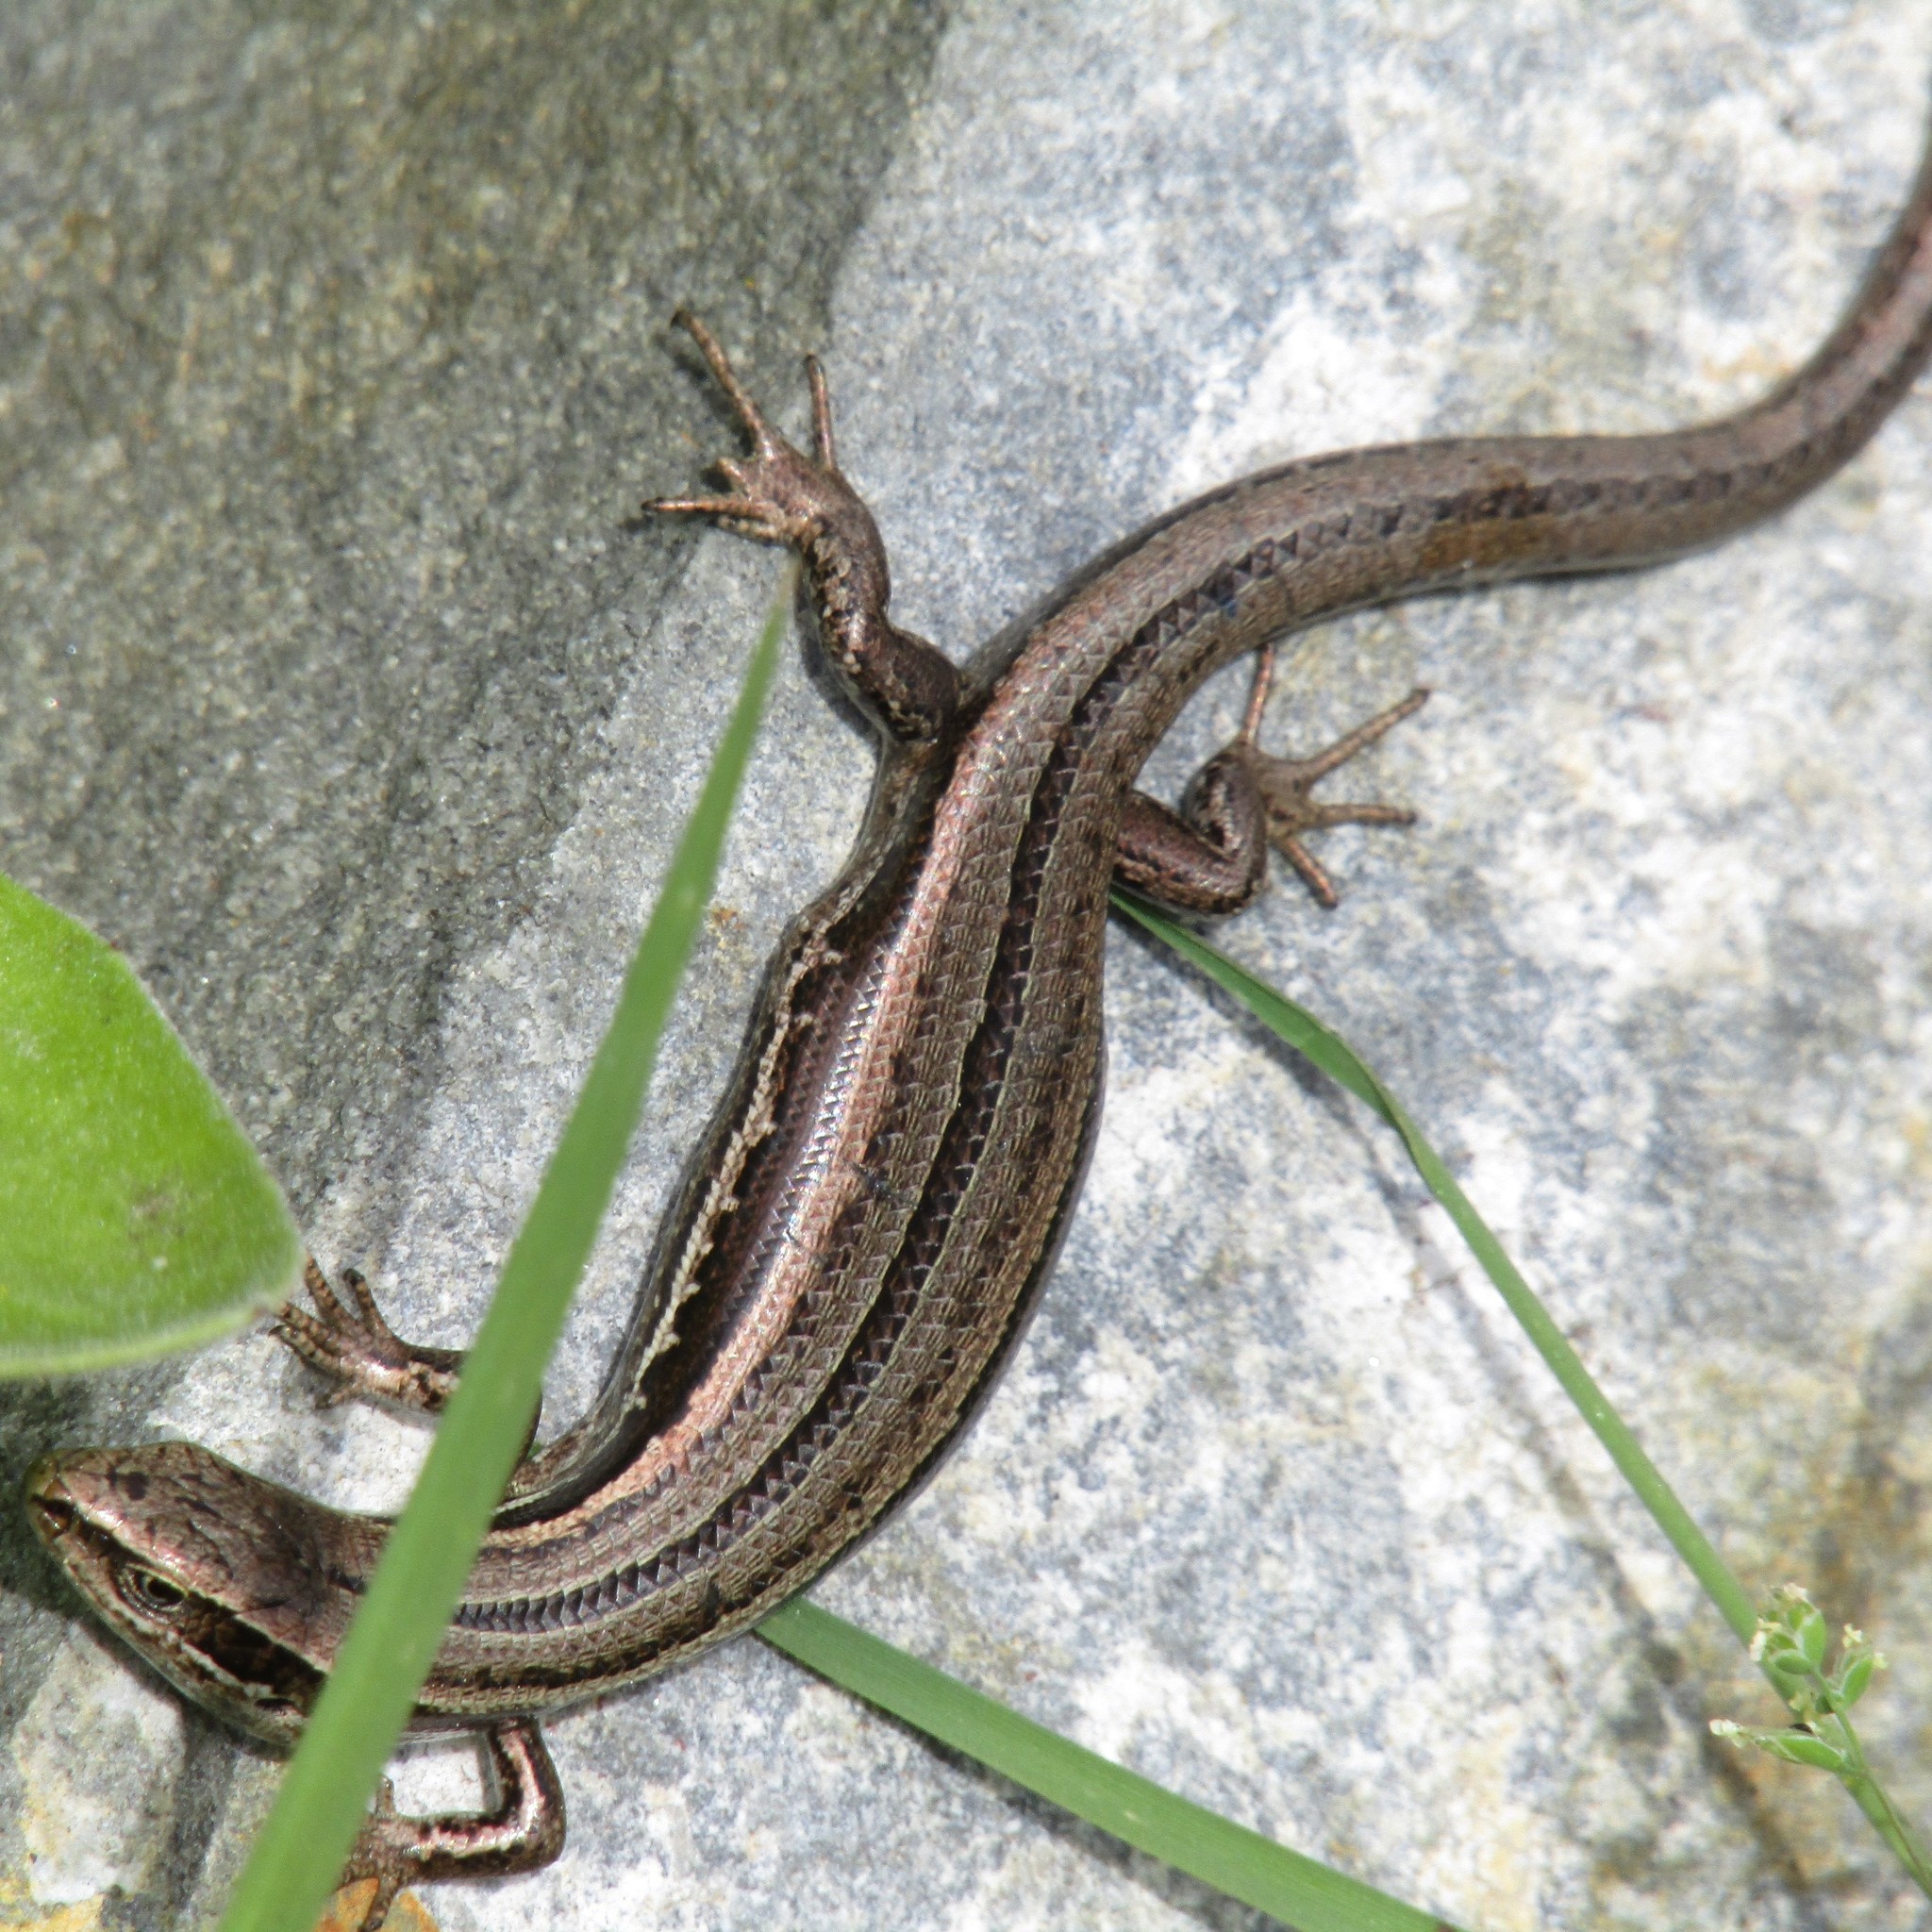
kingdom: Animalia
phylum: Chordata
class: Squamata
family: Scincidae
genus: Oligosoma
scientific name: Oligosoma polychroma
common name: Common new zealand skink
